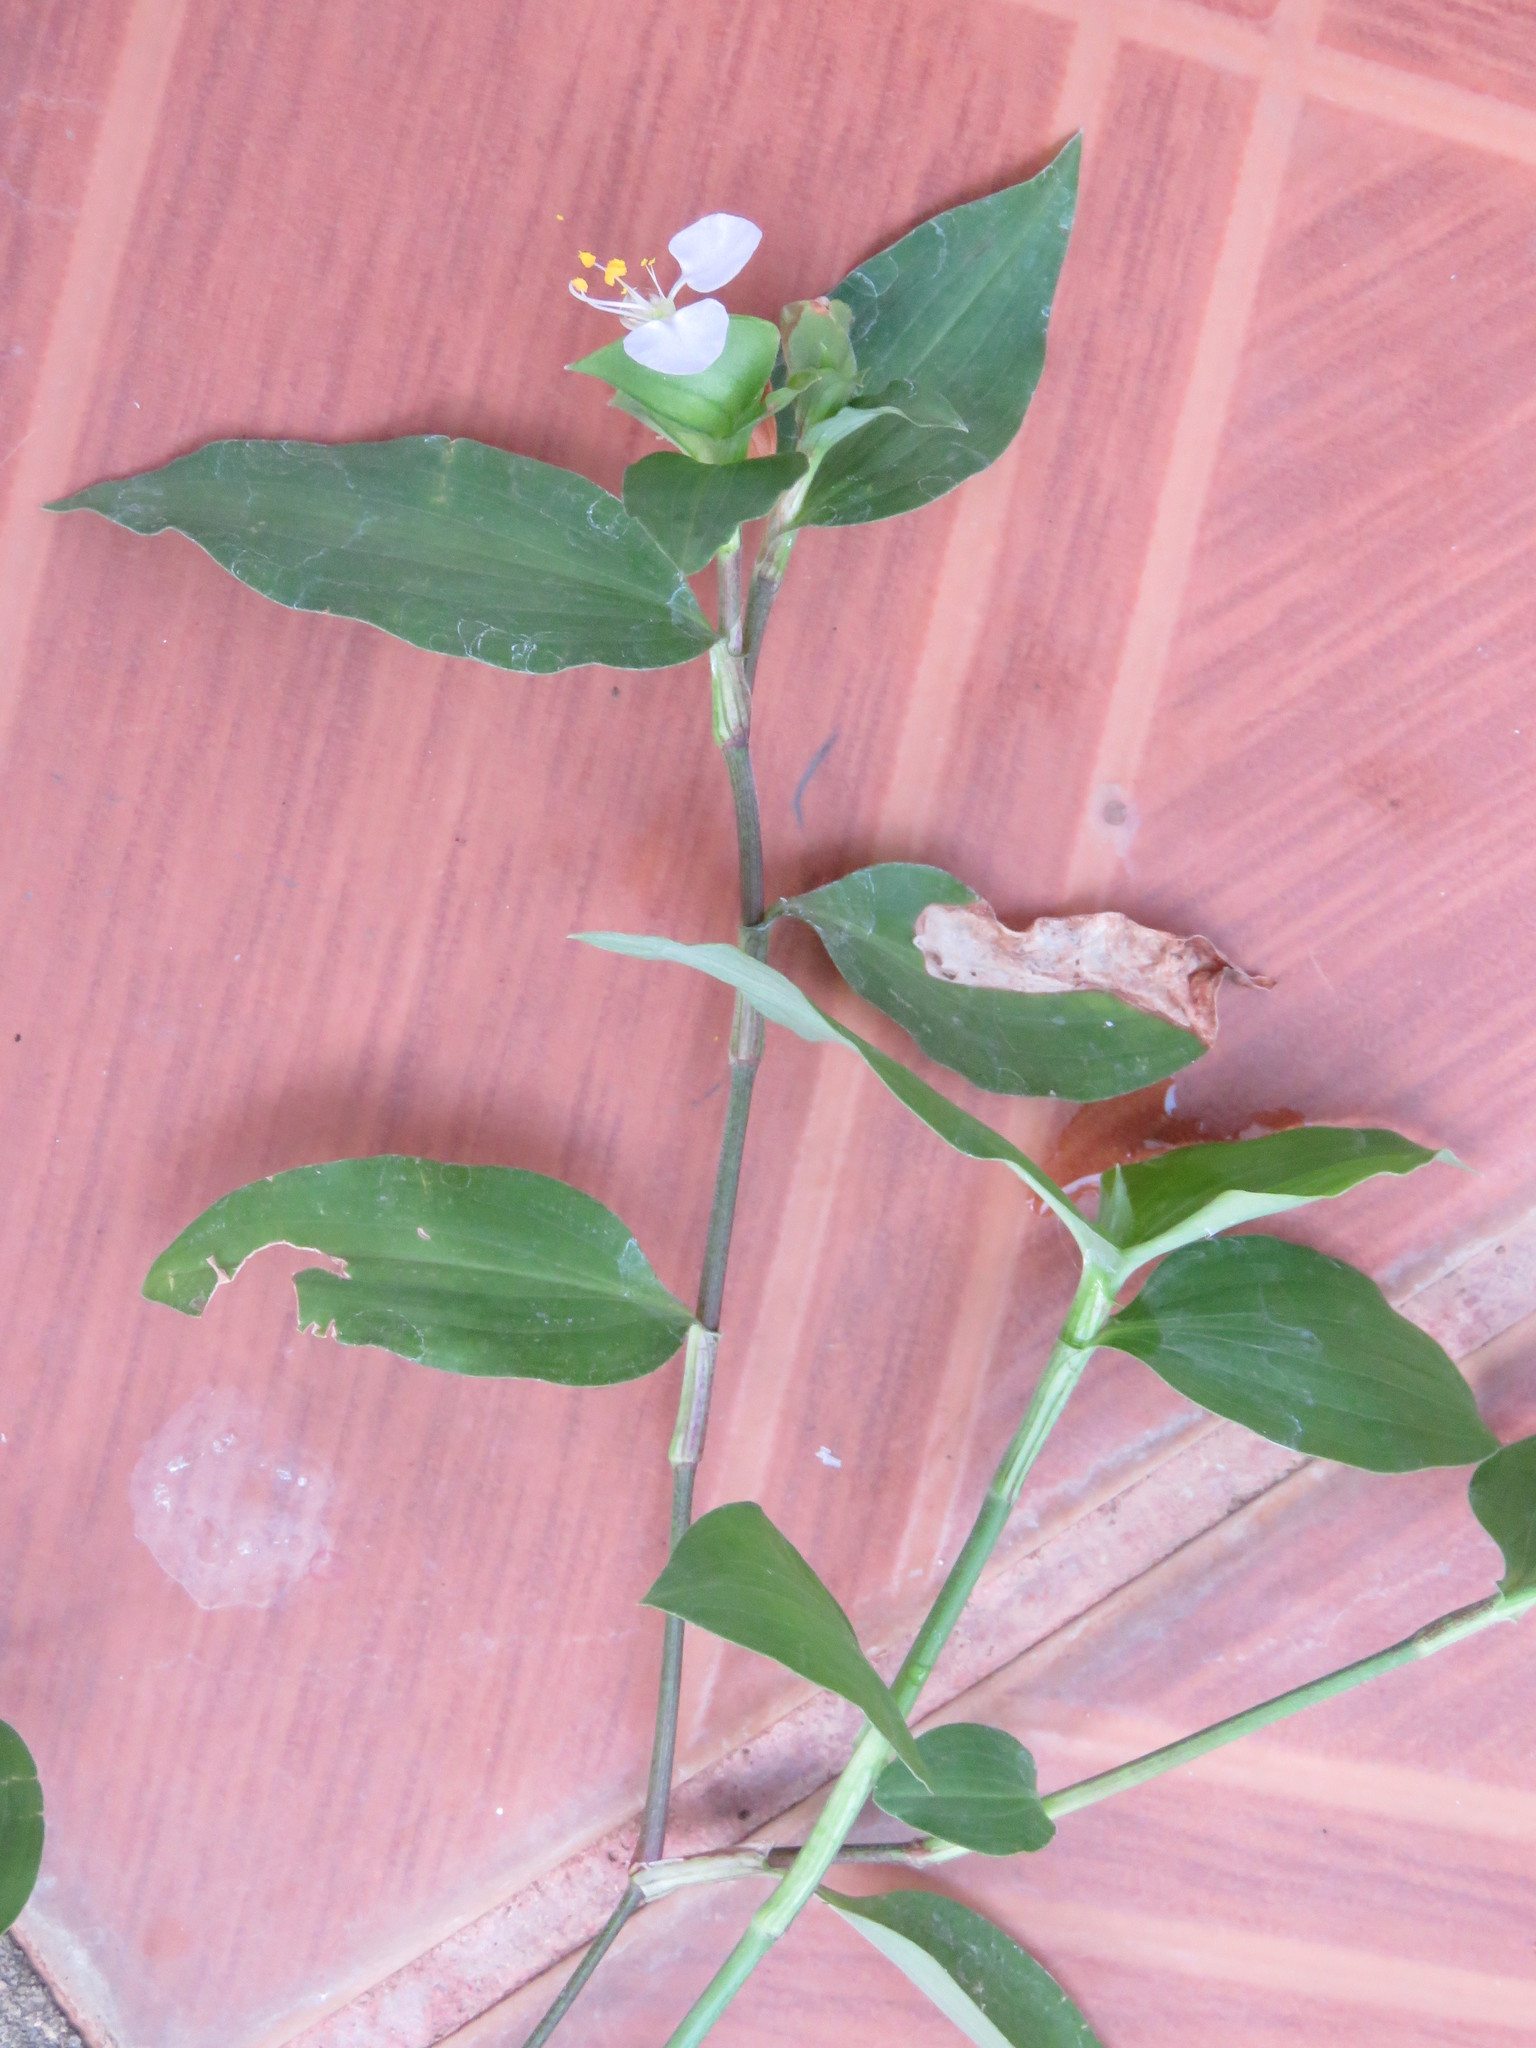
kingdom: Plantae
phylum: Tracheophyta
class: Liliopsida
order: Commelinales
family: Commelinaceae
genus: Commelina
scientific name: Commelina erecta
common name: Blousel blommetjie
